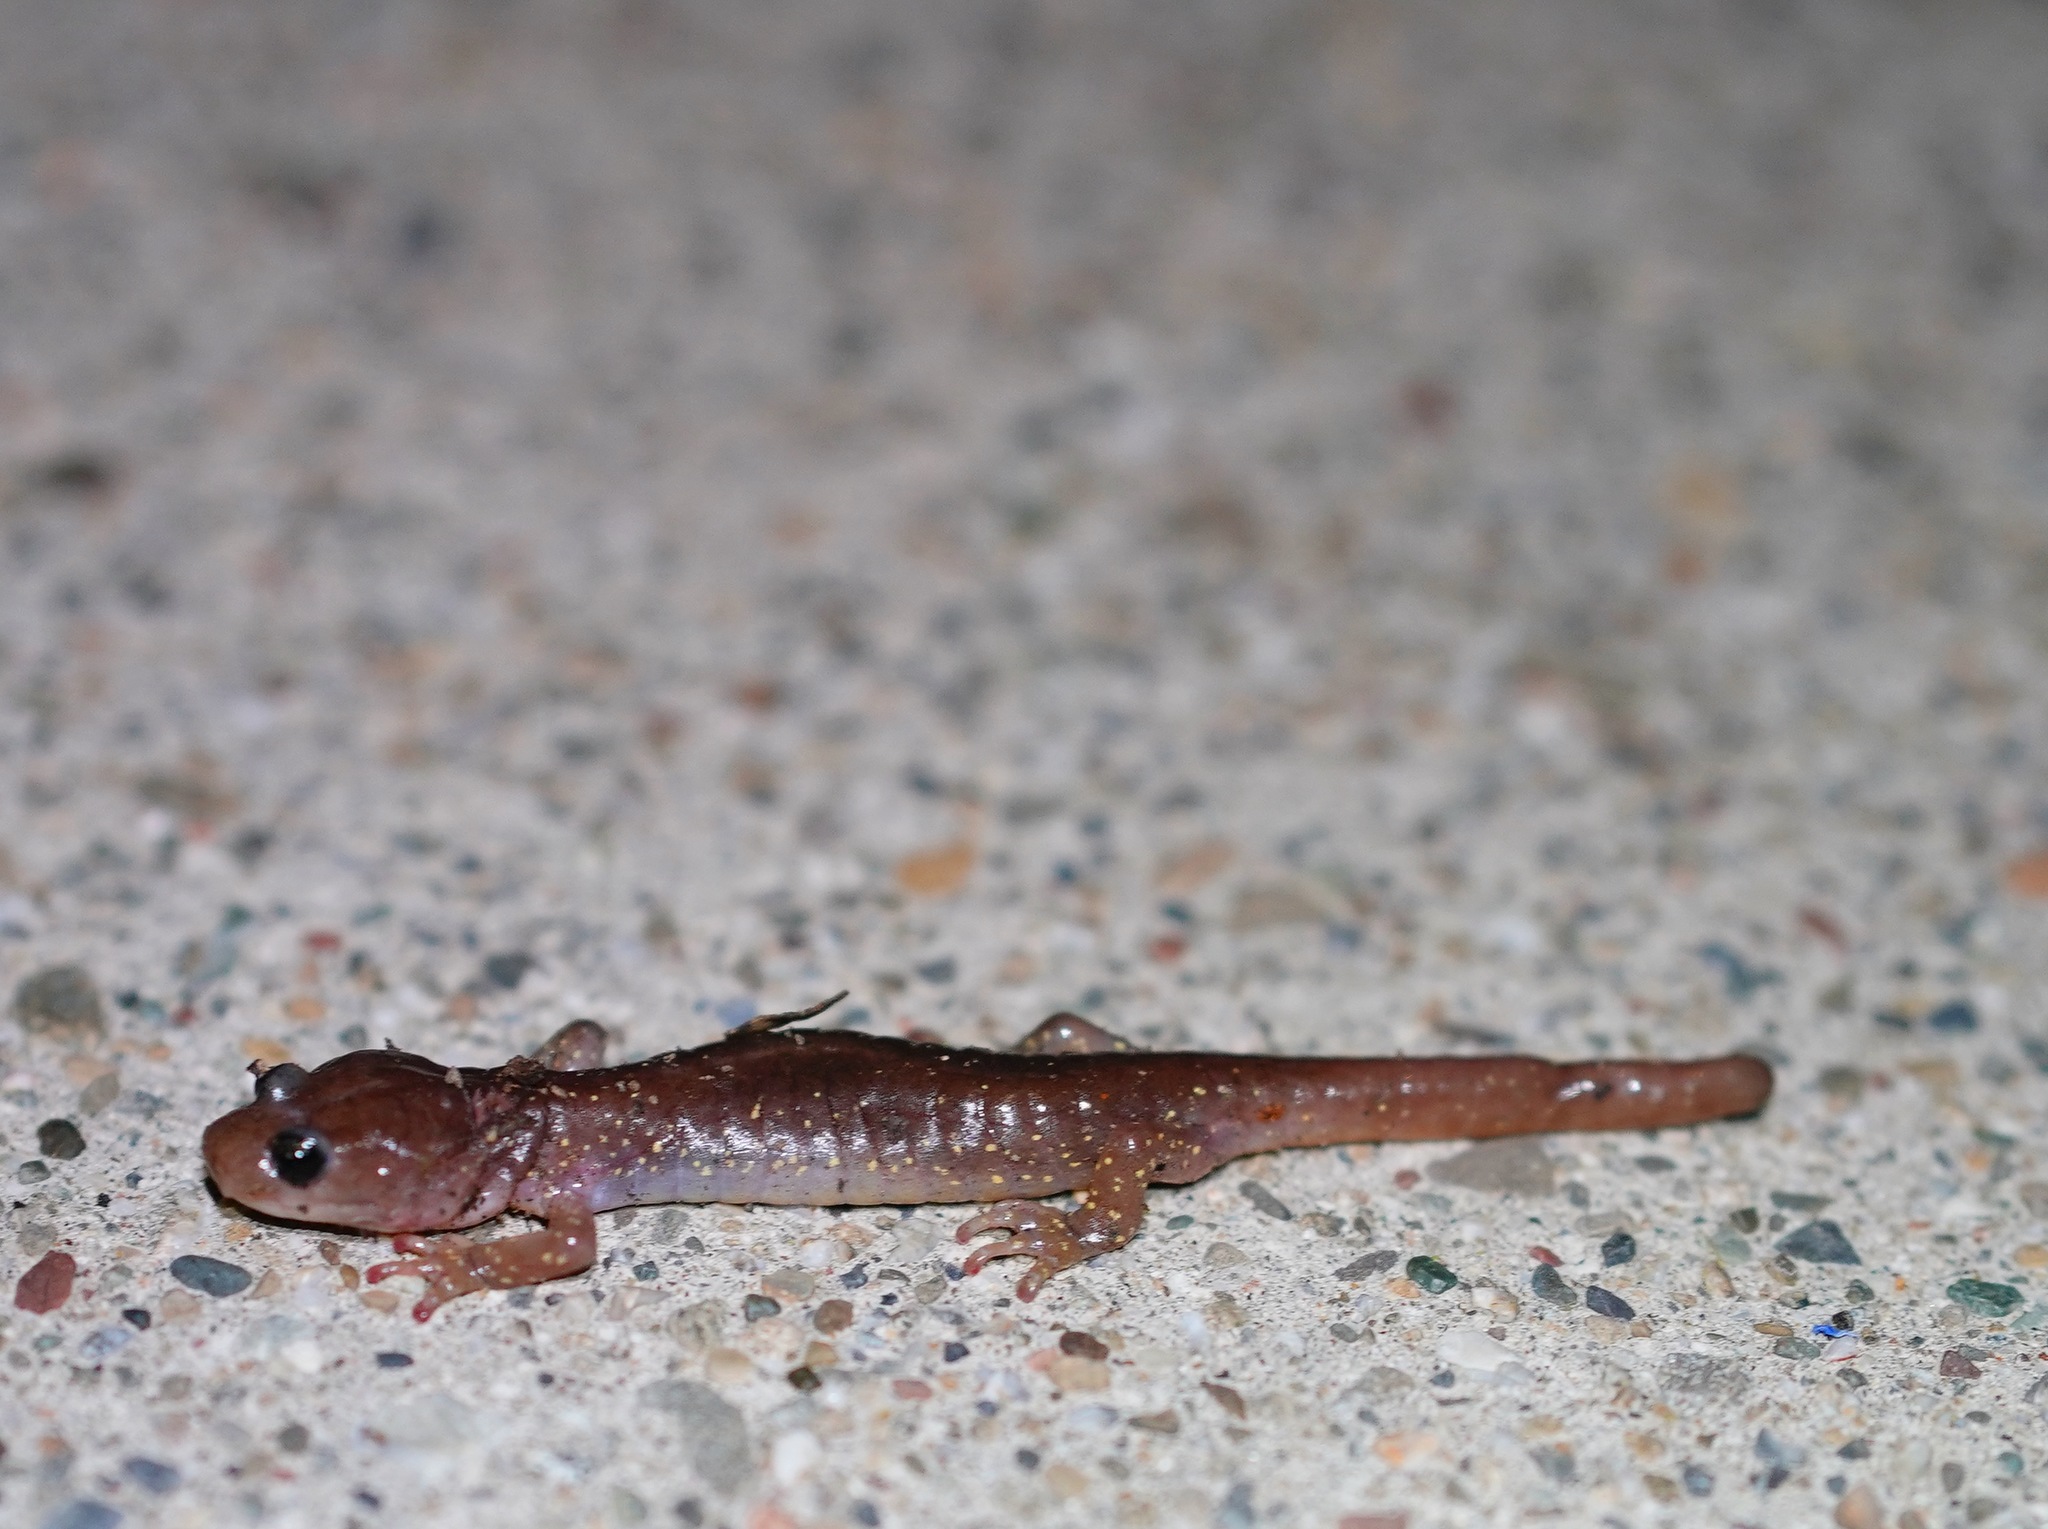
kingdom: Animalia
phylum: Chordata
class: Amphibia
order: Caudata
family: Plethodontidae
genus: Aneides
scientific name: Aneides lugubris
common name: Arboreal salamander
